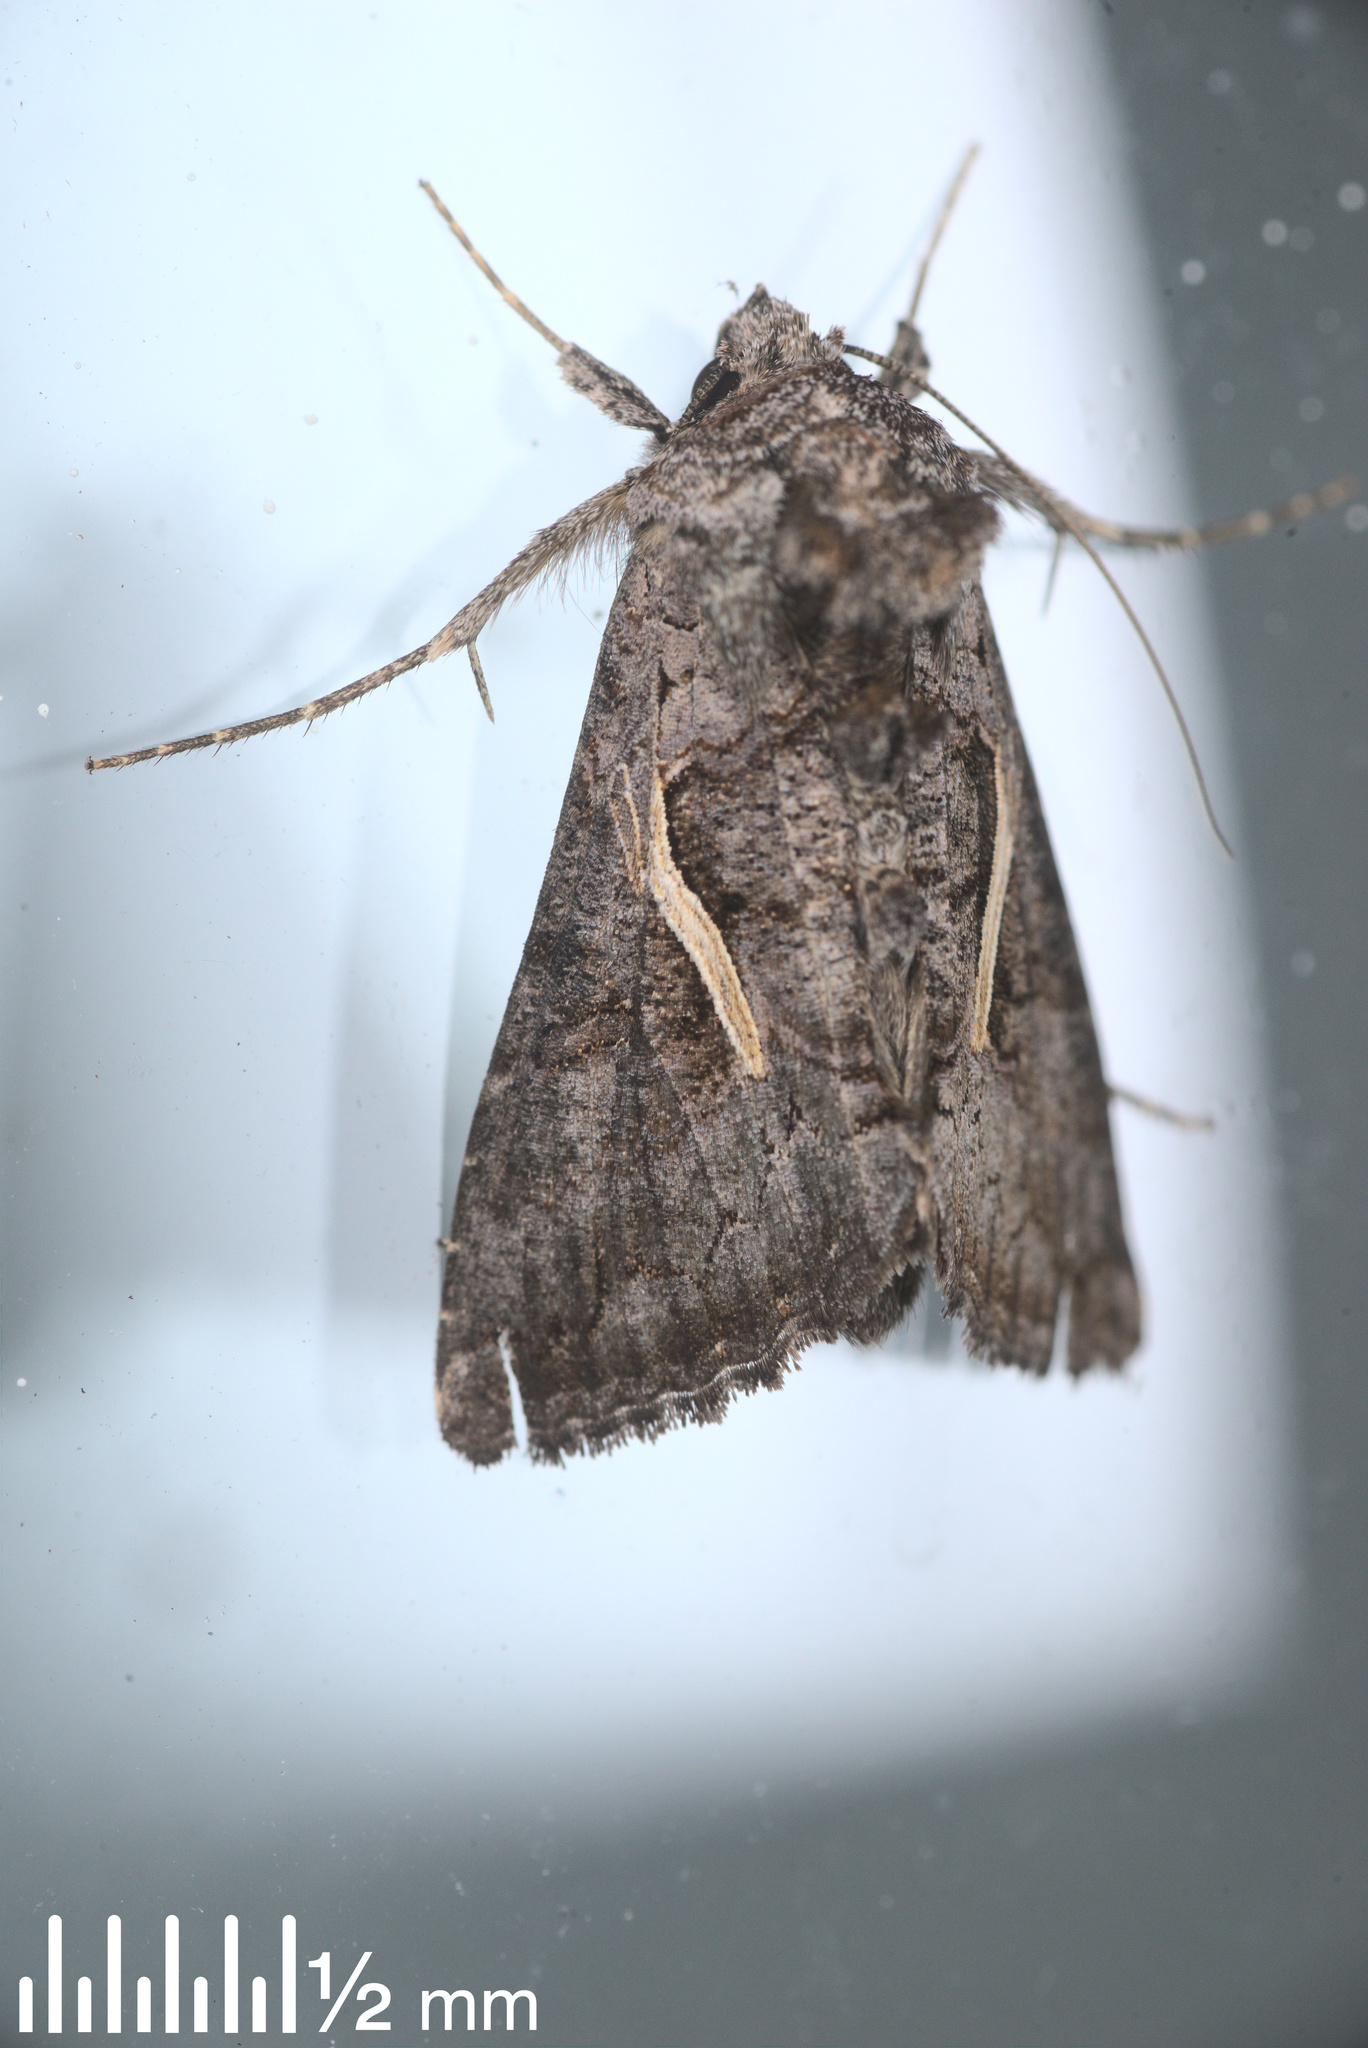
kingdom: Animalia
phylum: Arthropoda
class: Insecta
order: Lepidoptera
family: Noctuidae
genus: Ctenoplusia
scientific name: Ctenoplusia albostriata
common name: Moth
